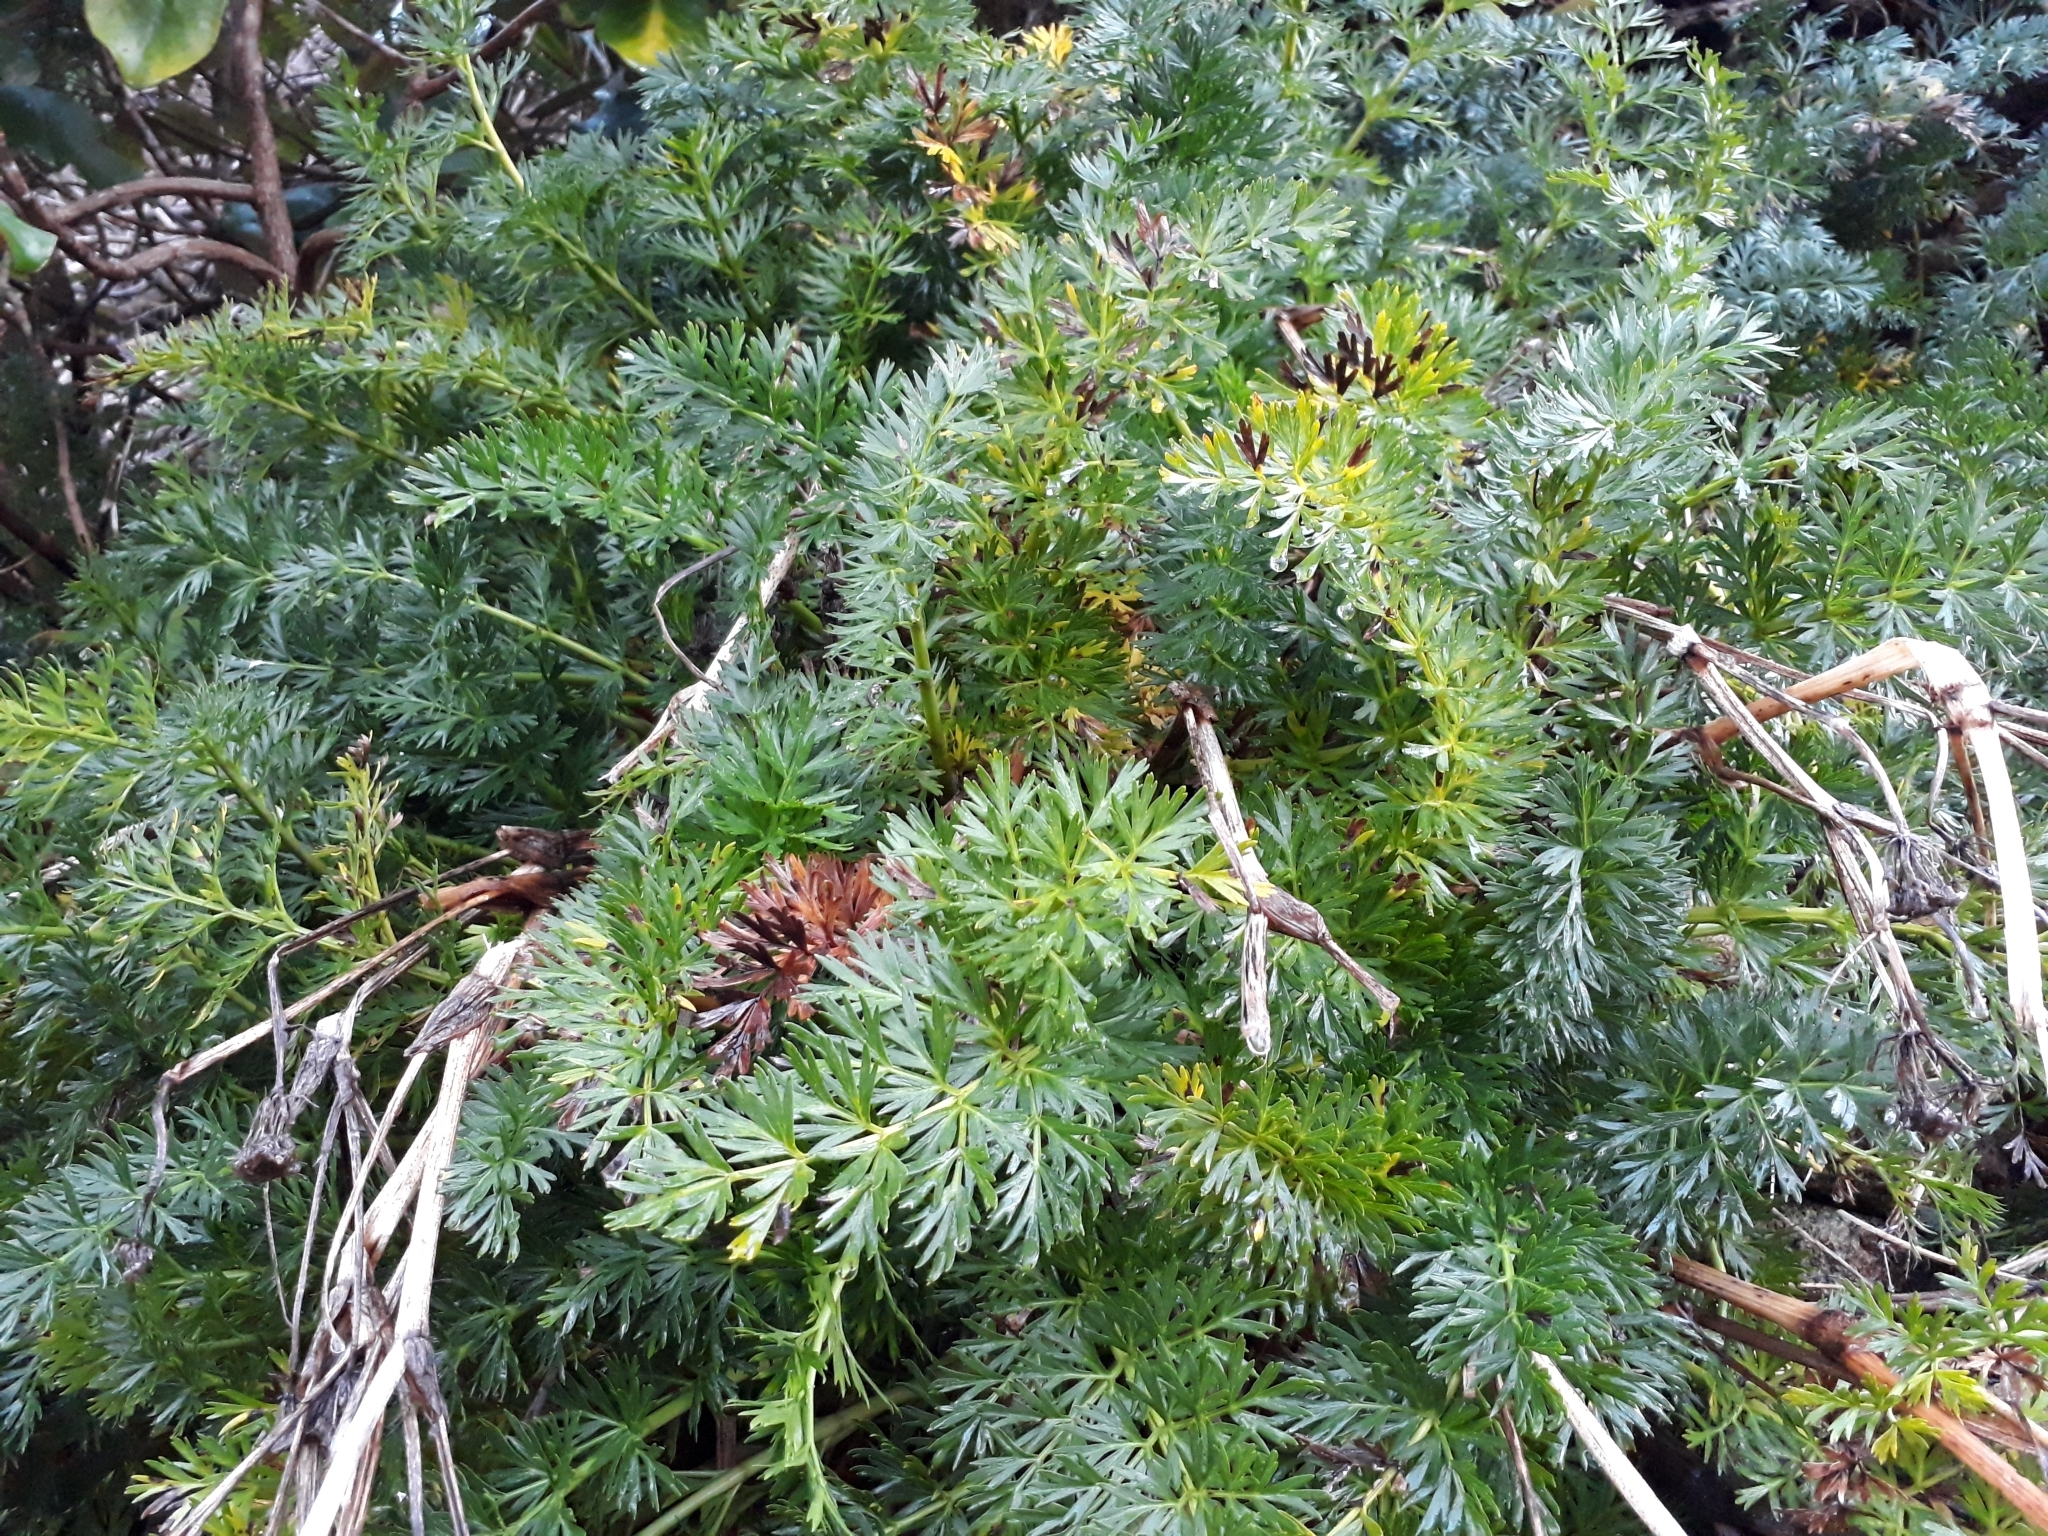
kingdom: Plantae
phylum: Tracheophyta
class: Magnoliopsida
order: Apiales
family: Apiaceae
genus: Anisotome
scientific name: Anisotome lyallii
